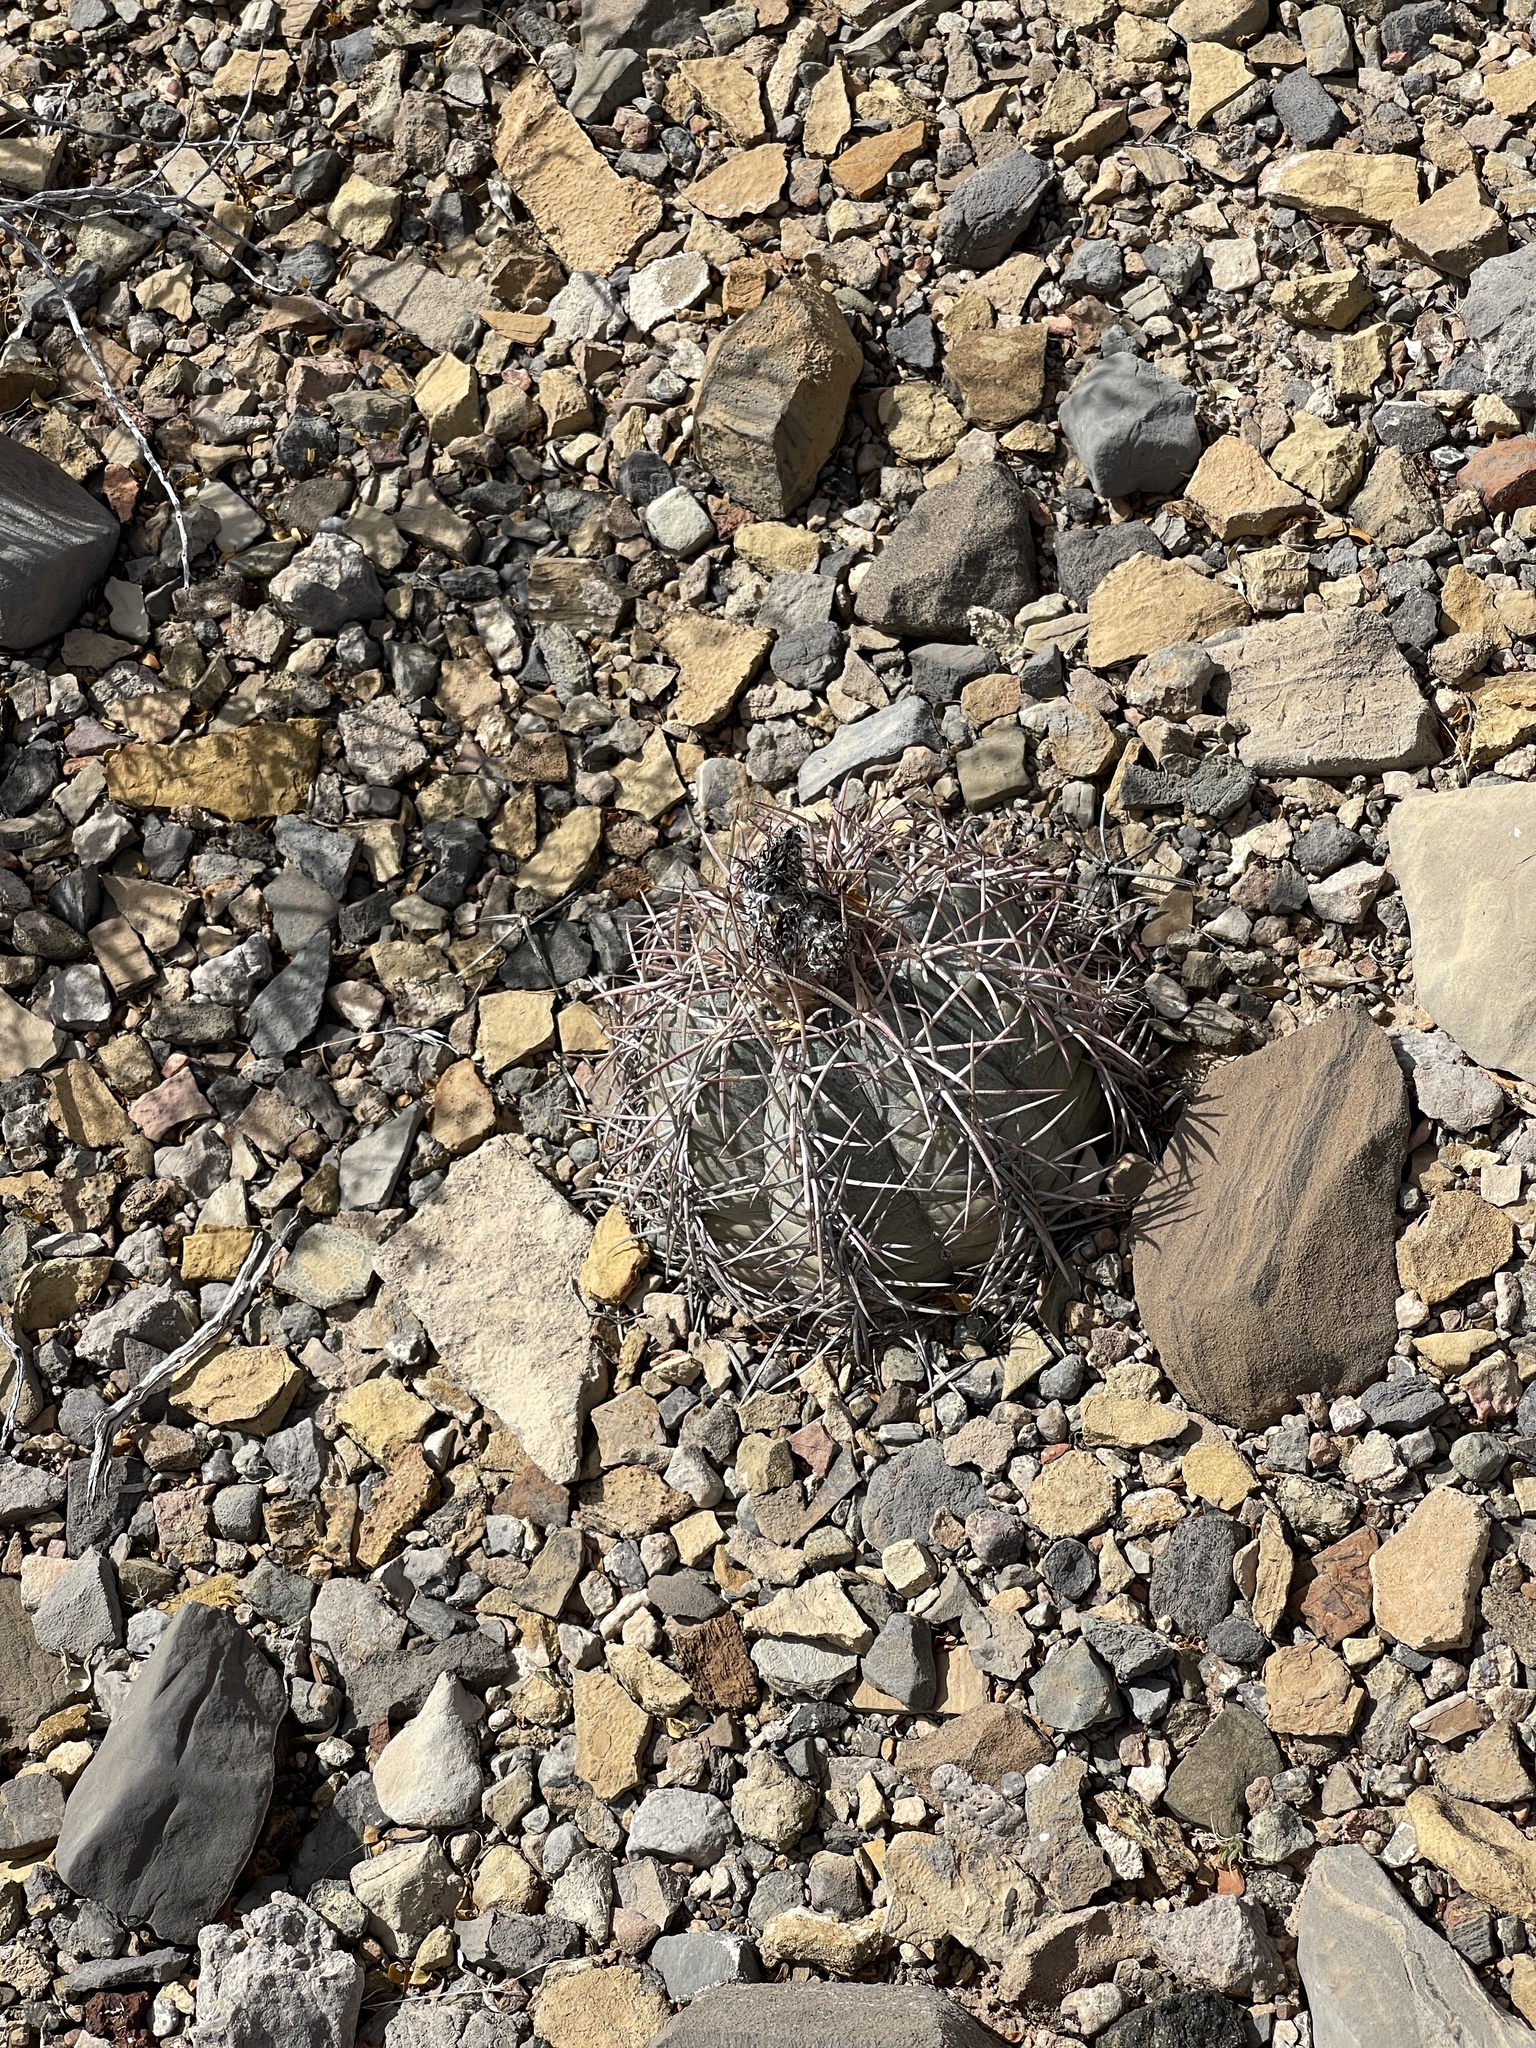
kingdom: Plantae
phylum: Tracheophyta
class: Magnoliopsida
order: Caryophyllales
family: Cactaceae
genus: Echinocactus
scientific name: Echinocactus horizonthalonius
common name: Devilshead
